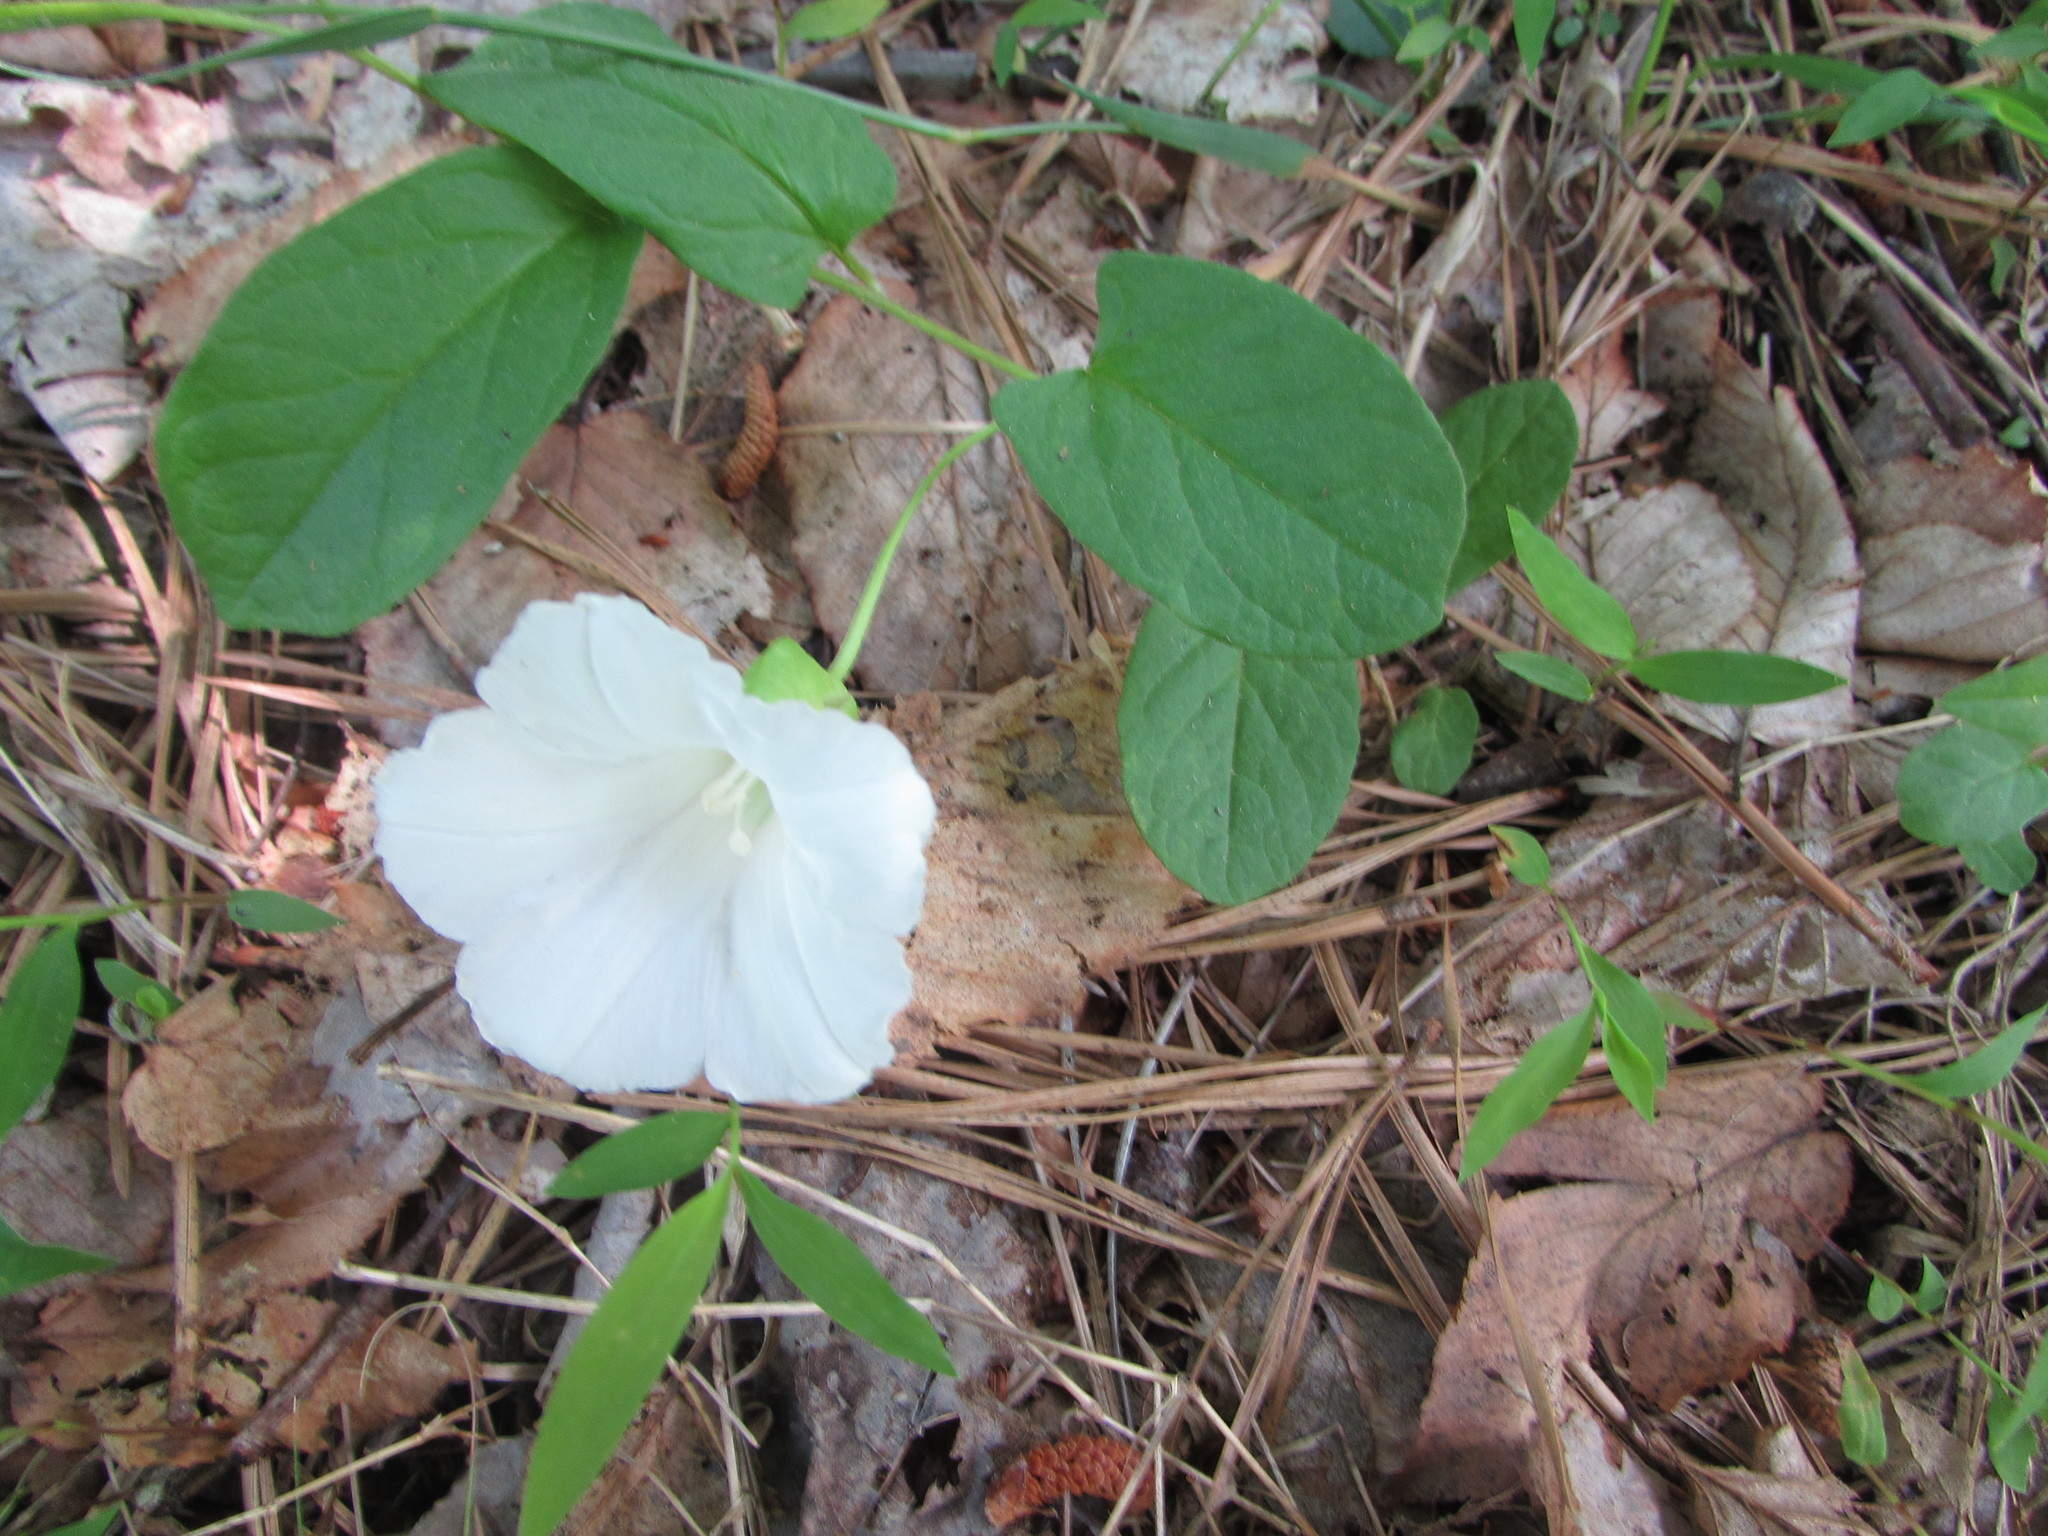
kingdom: Plantae
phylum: Tracheophyta
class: Magnoliopsida
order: Solanales
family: Convolvulaceae
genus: Calystegia
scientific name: Calystegia spithamaea
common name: Dwarf bindweed
